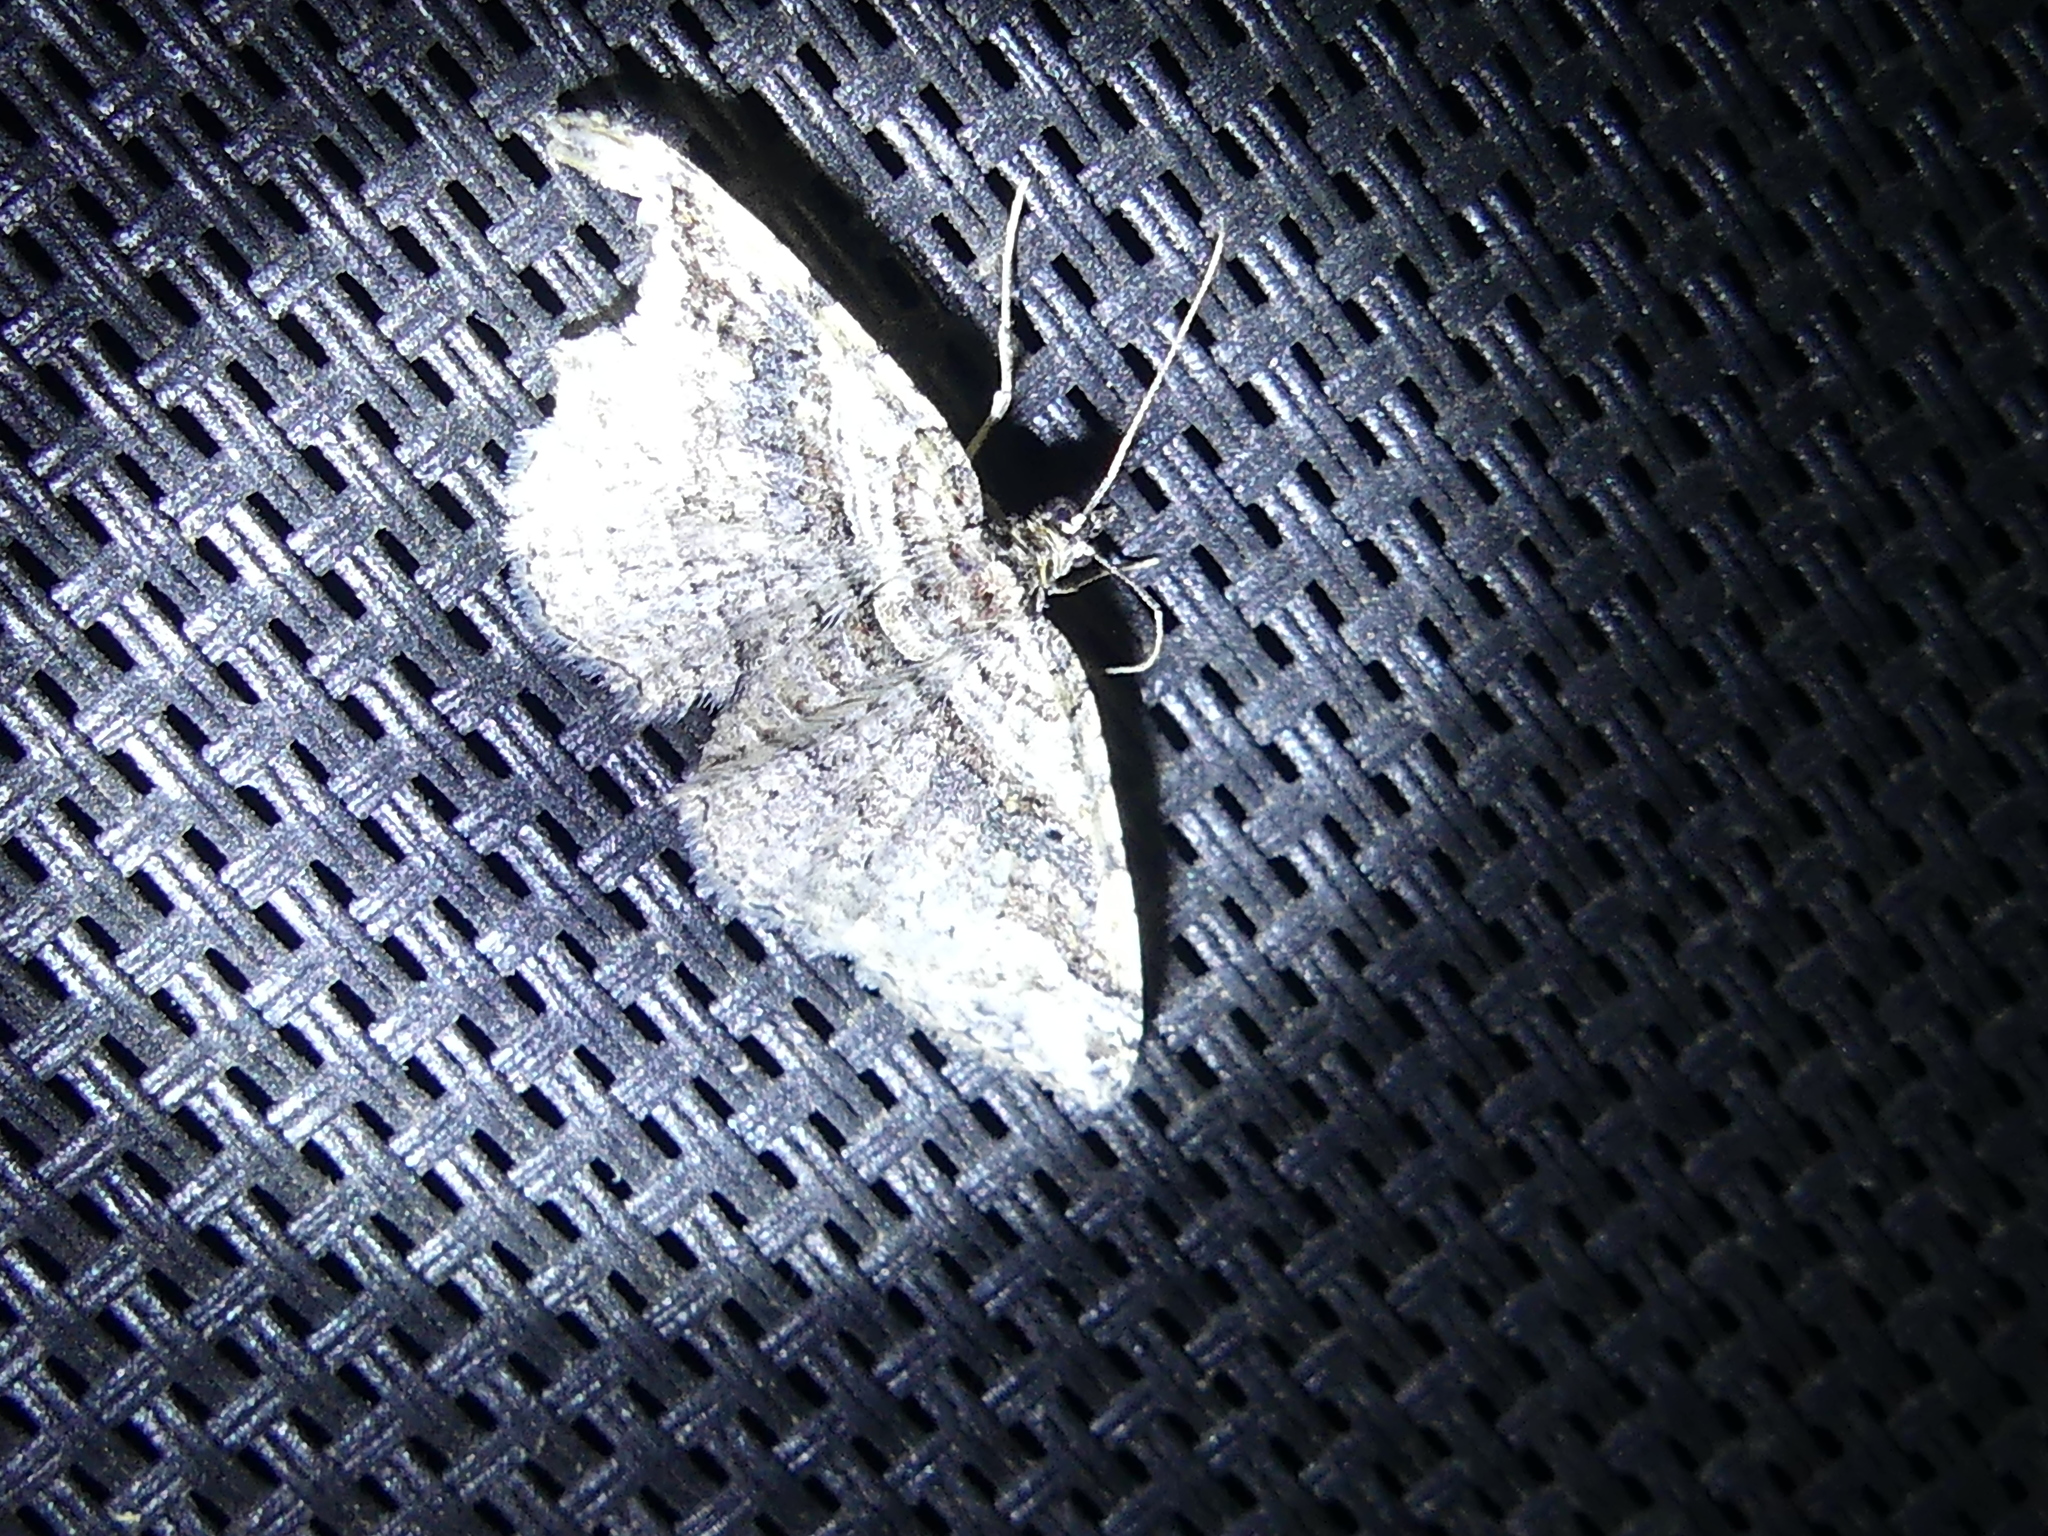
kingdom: Animalia
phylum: Arthropoda
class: Insecta
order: Lepidoptera
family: Geometridae
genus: Costaconvexa
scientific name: Costaconvexa centrostrigaria
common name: Bent-line carpet
